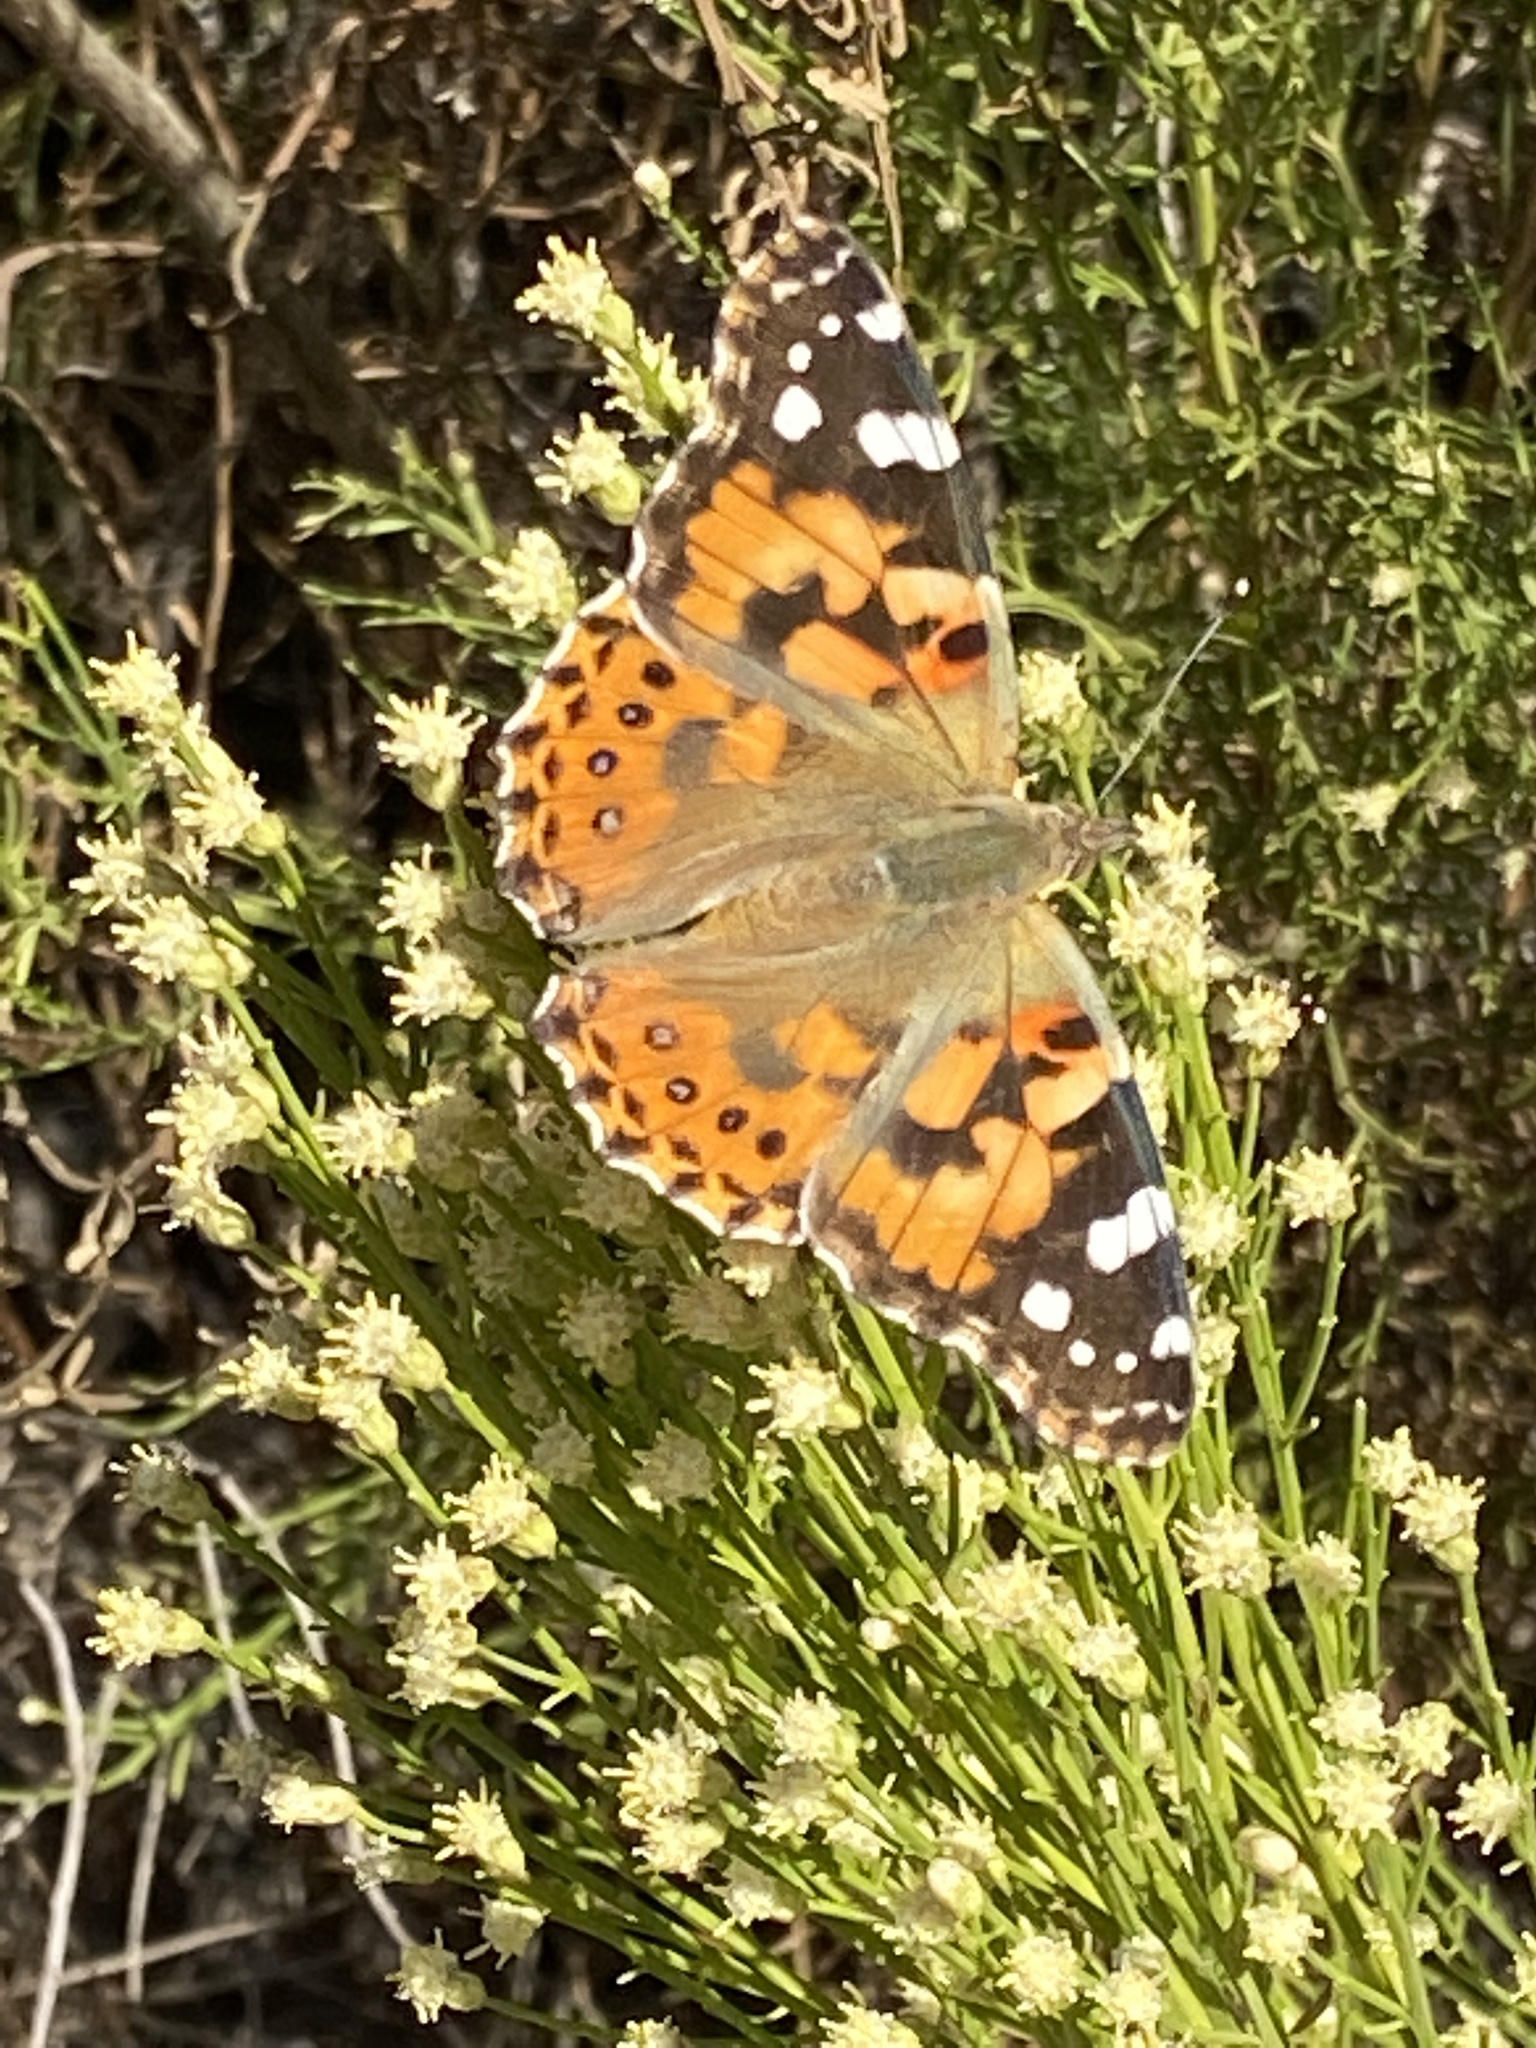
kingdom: Animalia
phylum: Arthropoda
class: Insecta
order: Lepidoptera
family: Nymphalidae
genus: Vanessa
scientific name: Vanessa cardui
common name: Painted lady
